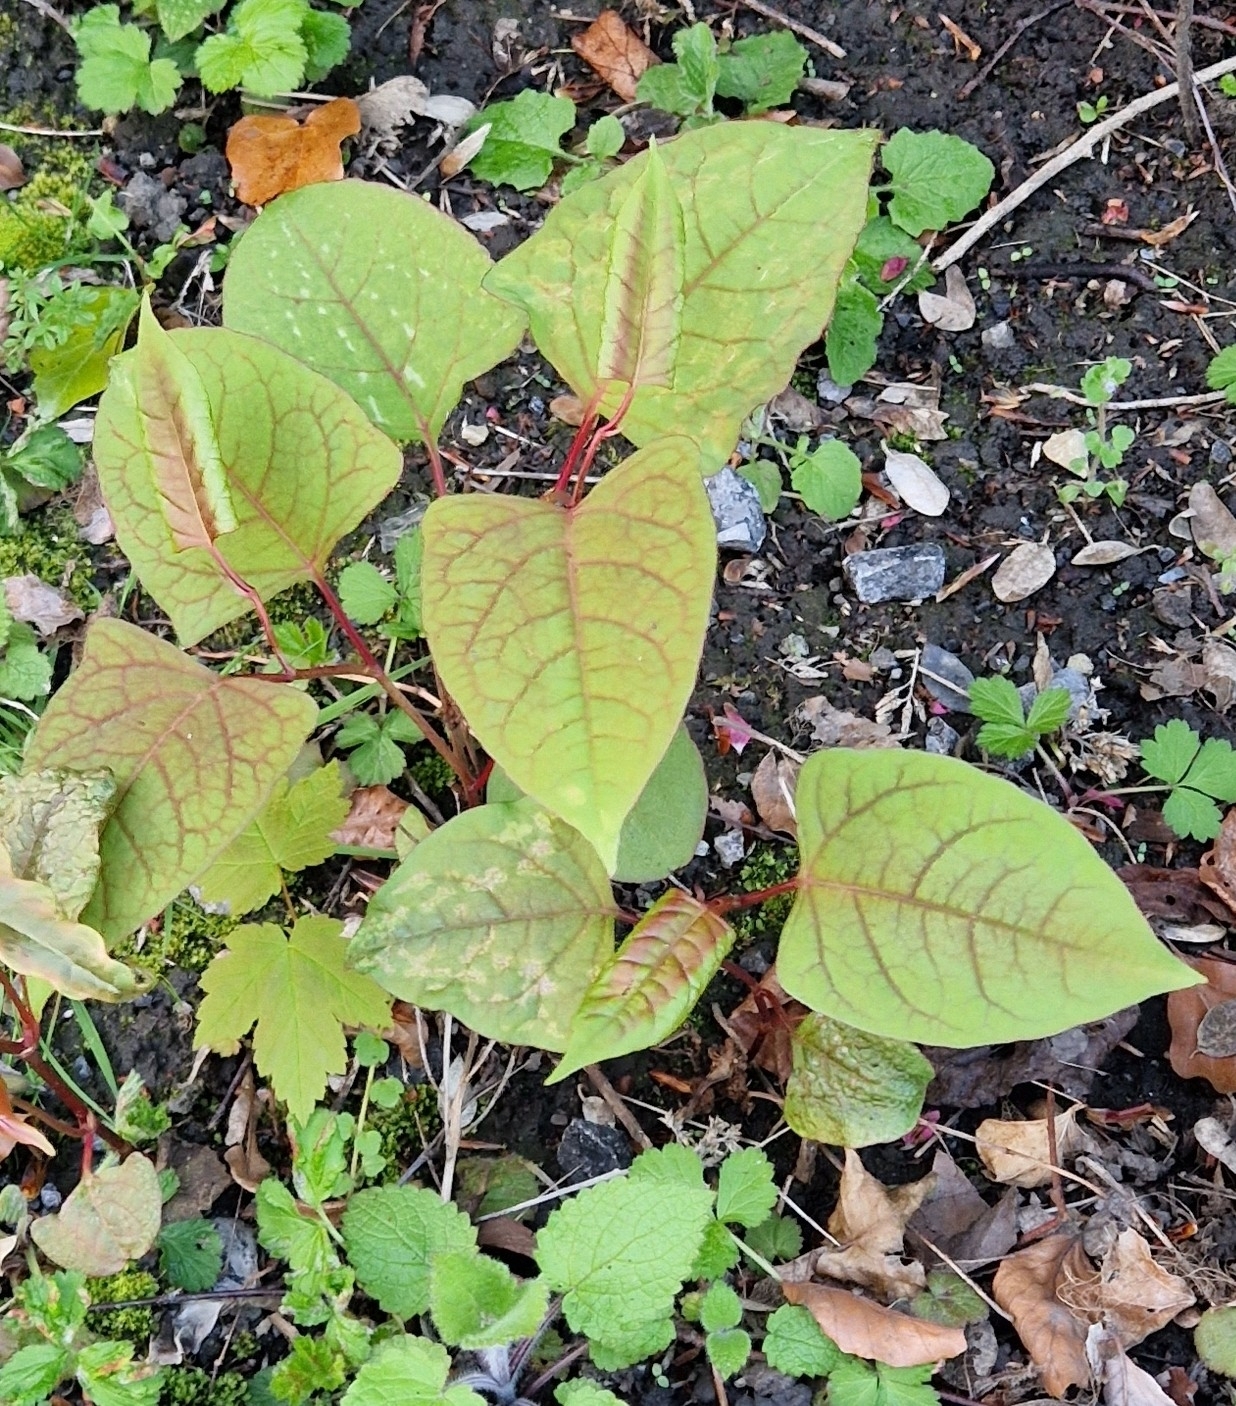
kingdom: Plantae
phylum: Tracheophyta
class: Magnoliopsida
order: Caryophyllales
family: Polygonaceae
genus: Reynoutria
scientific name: Reynoutria japonica
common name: Japanese knotweed
